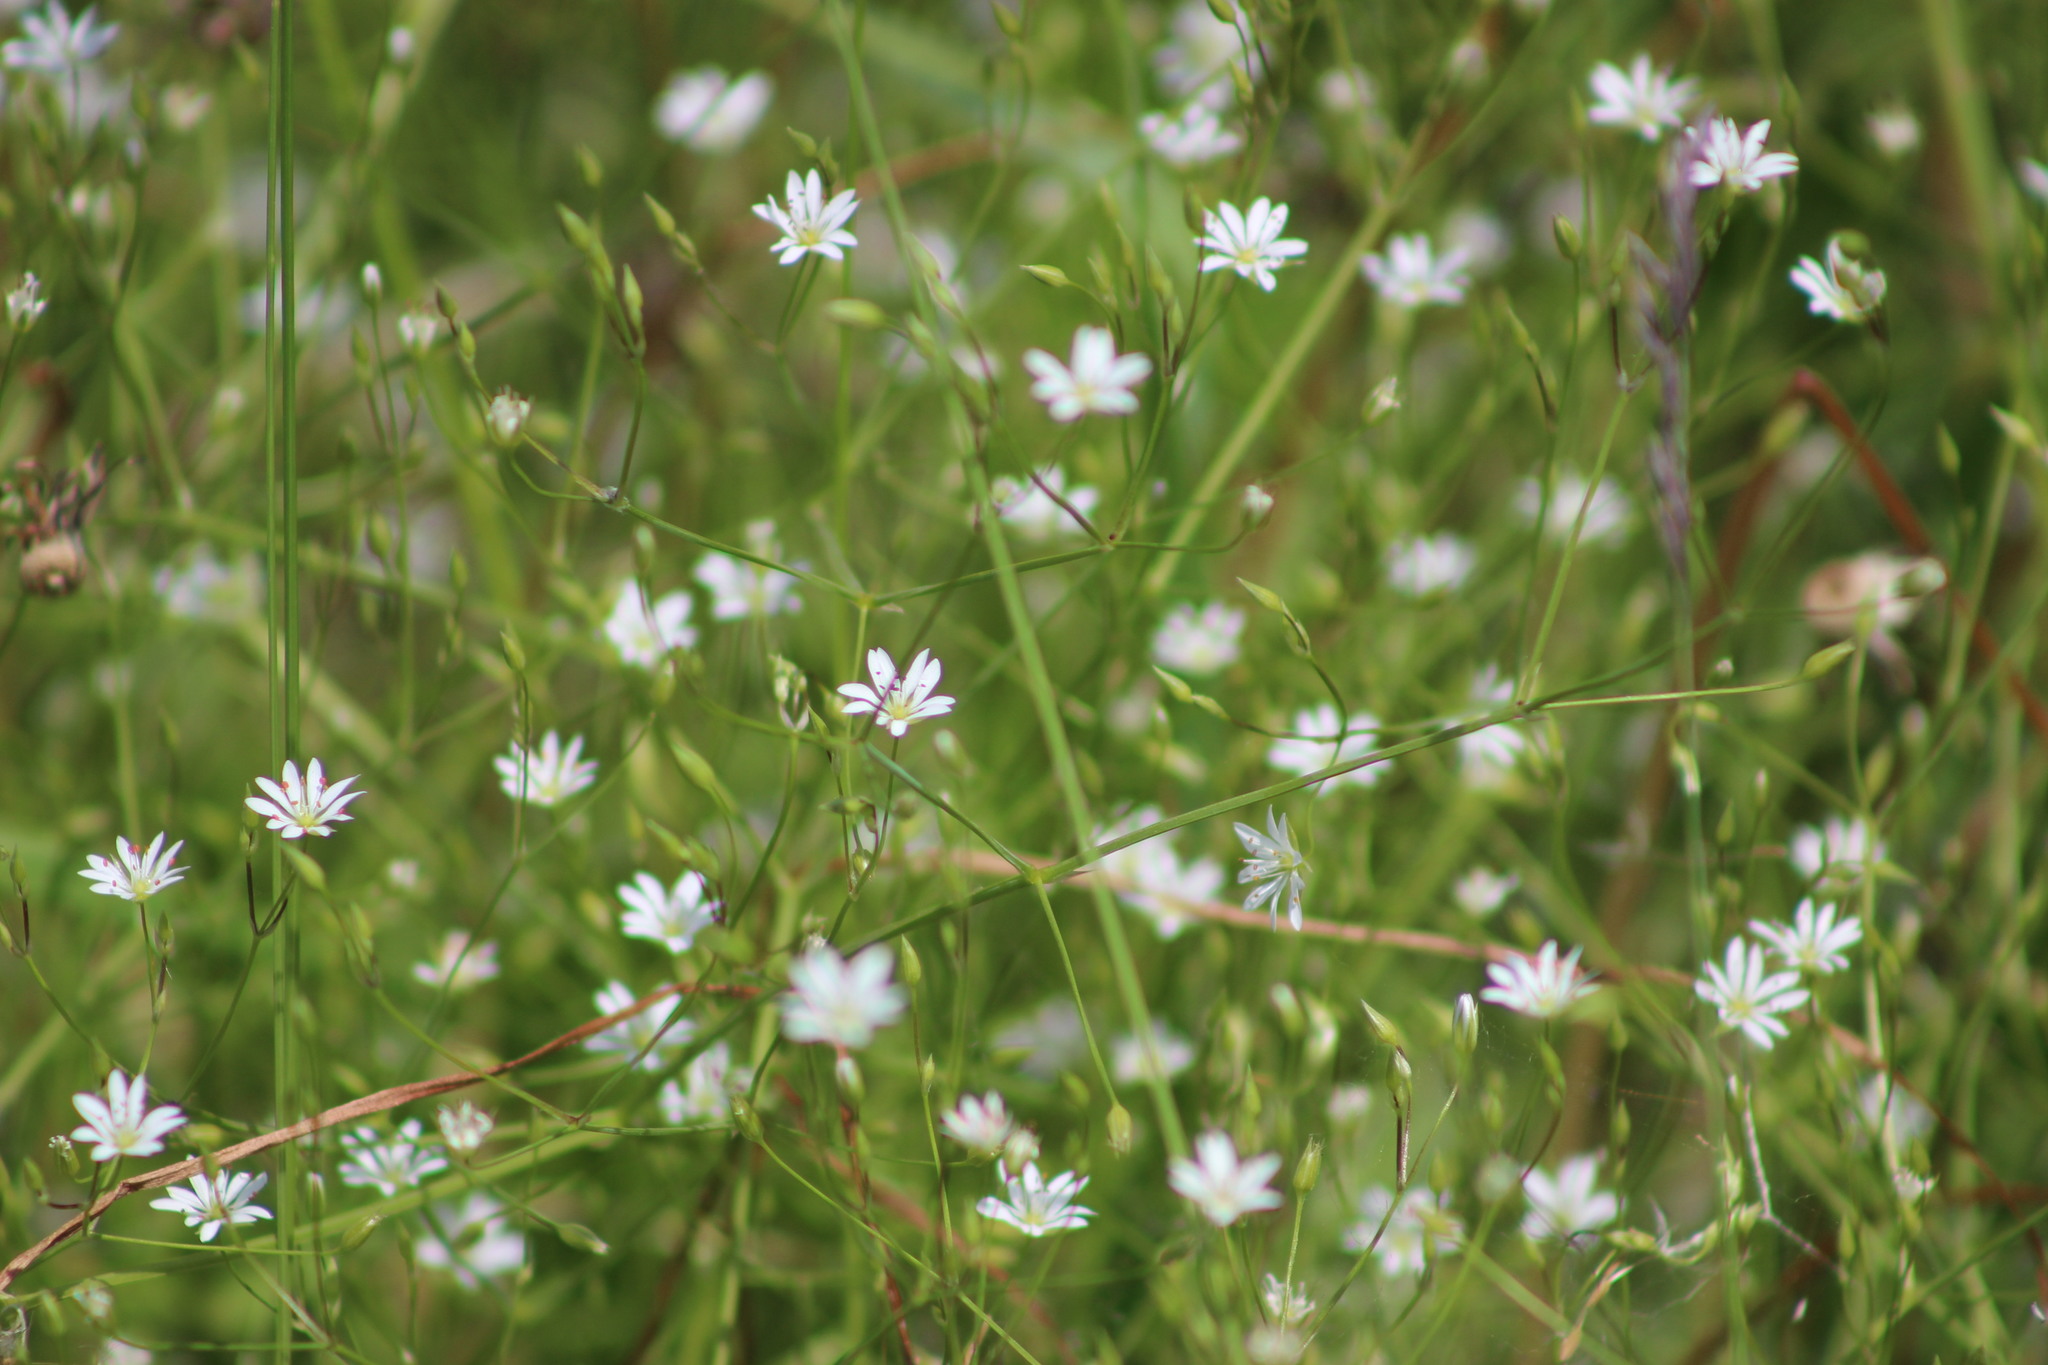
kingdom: Plantae
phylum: Tracheophyta
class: Magnoliopsida
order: Caryophyllales
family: Caryophyllaceae
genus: Stellaria
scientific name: Stellaria graminea
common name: Grass-like starwort
